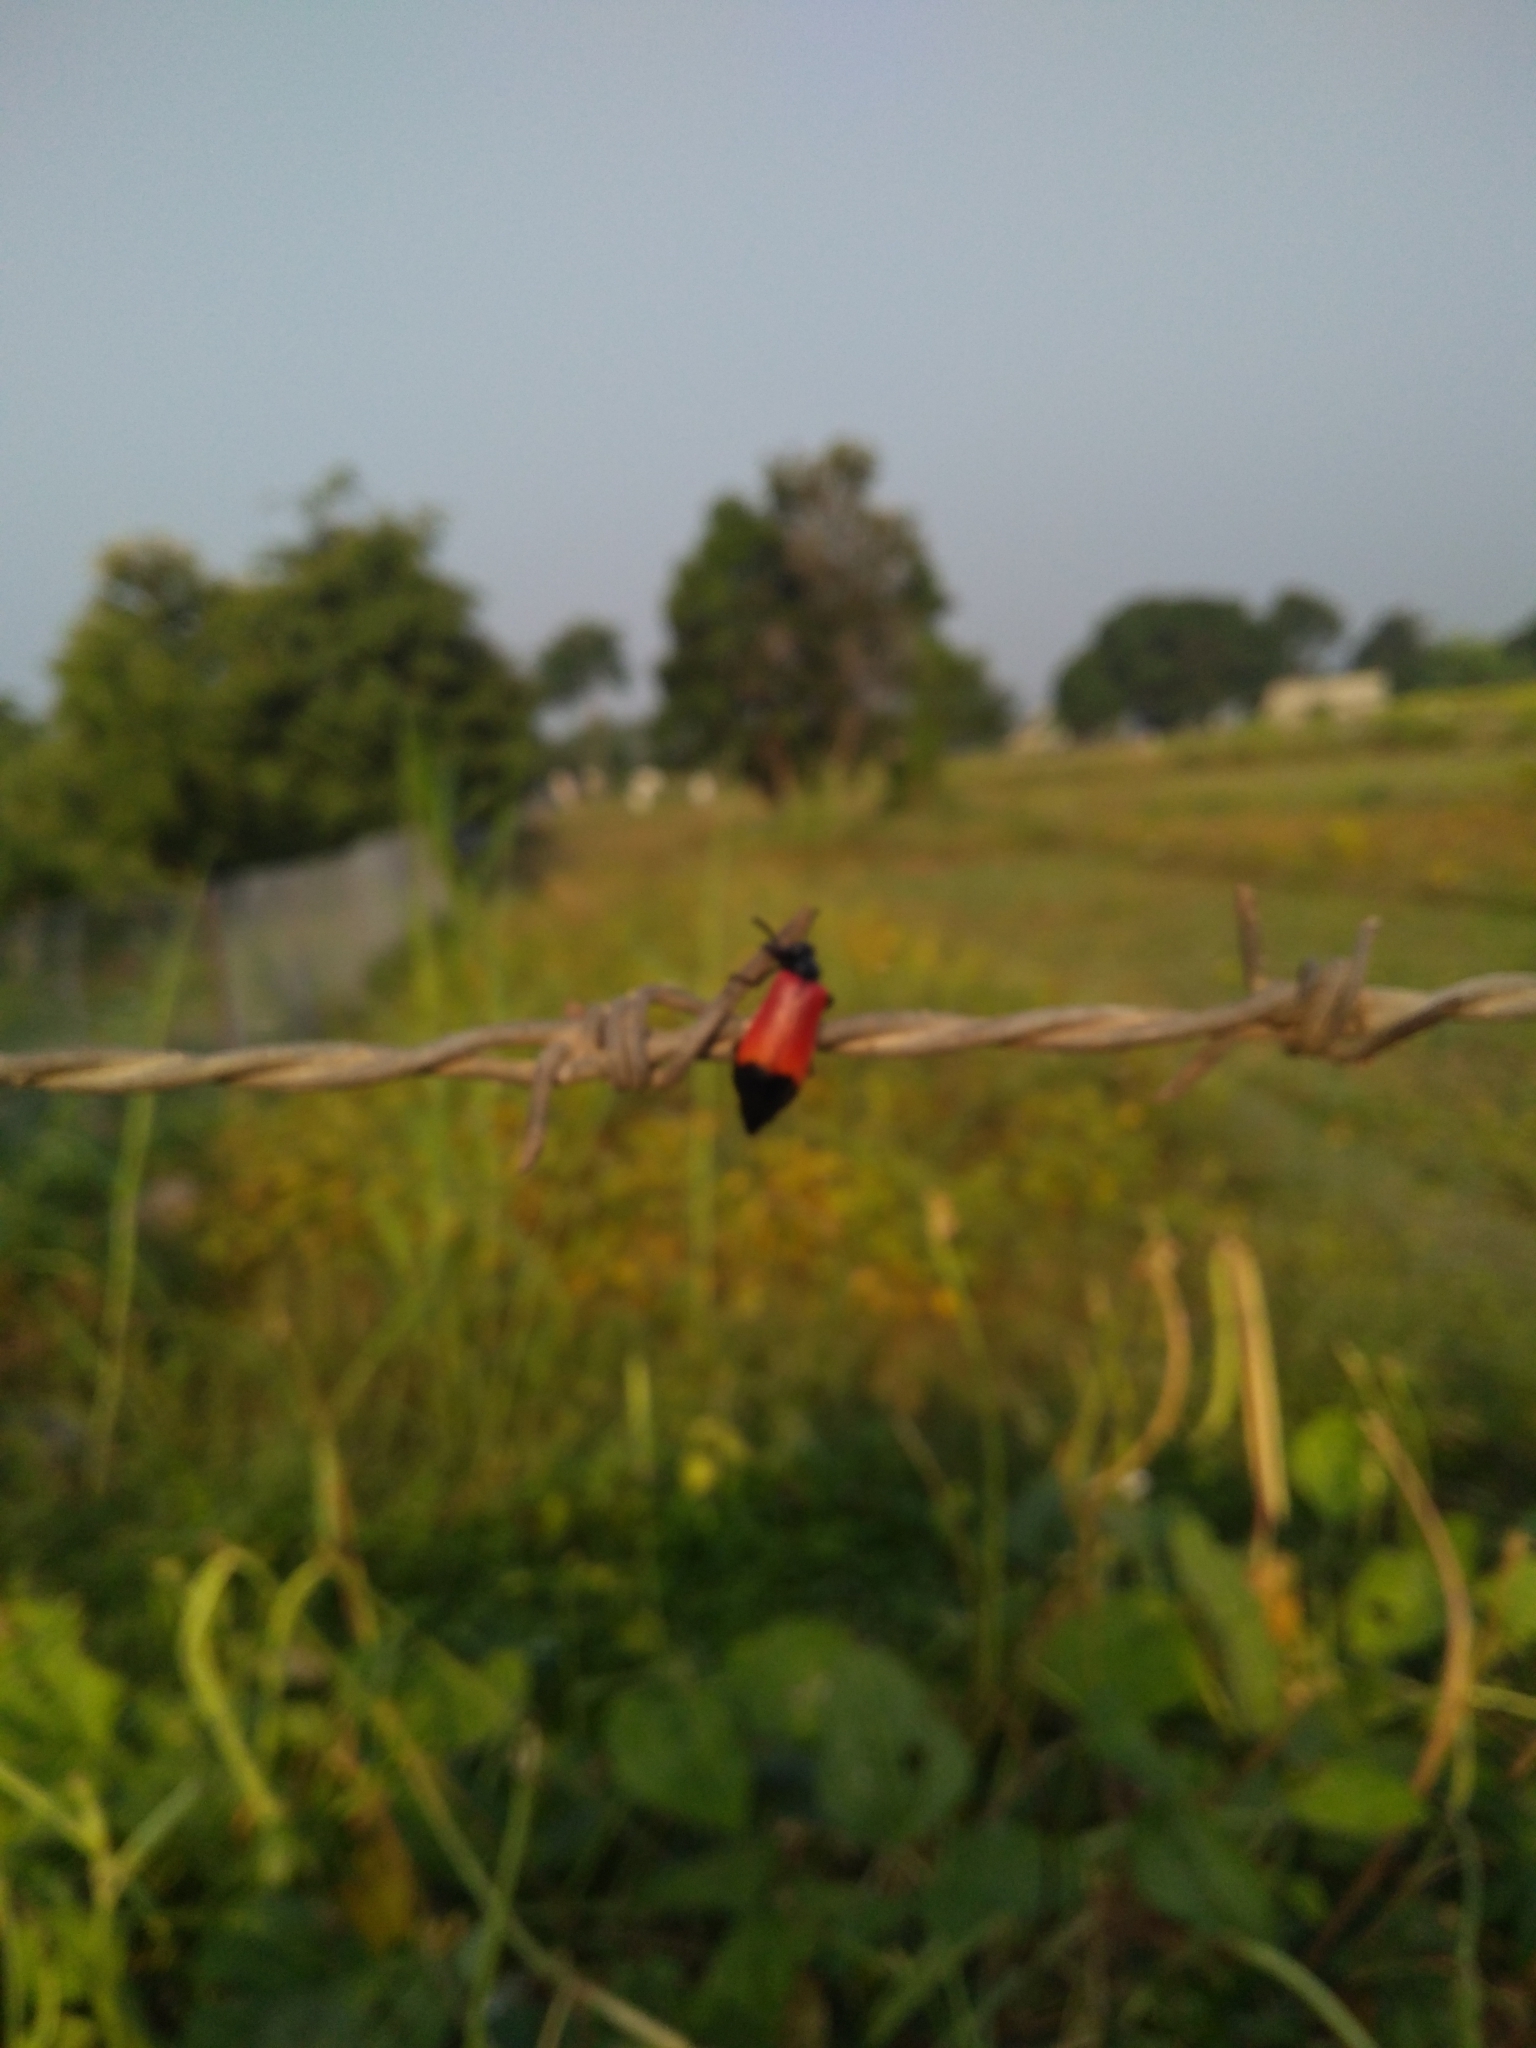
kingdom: Animalia
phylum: Arthropoda
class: Insecta
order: Coleoptera
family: Meloidae
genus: Lytta
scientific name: Lytta
